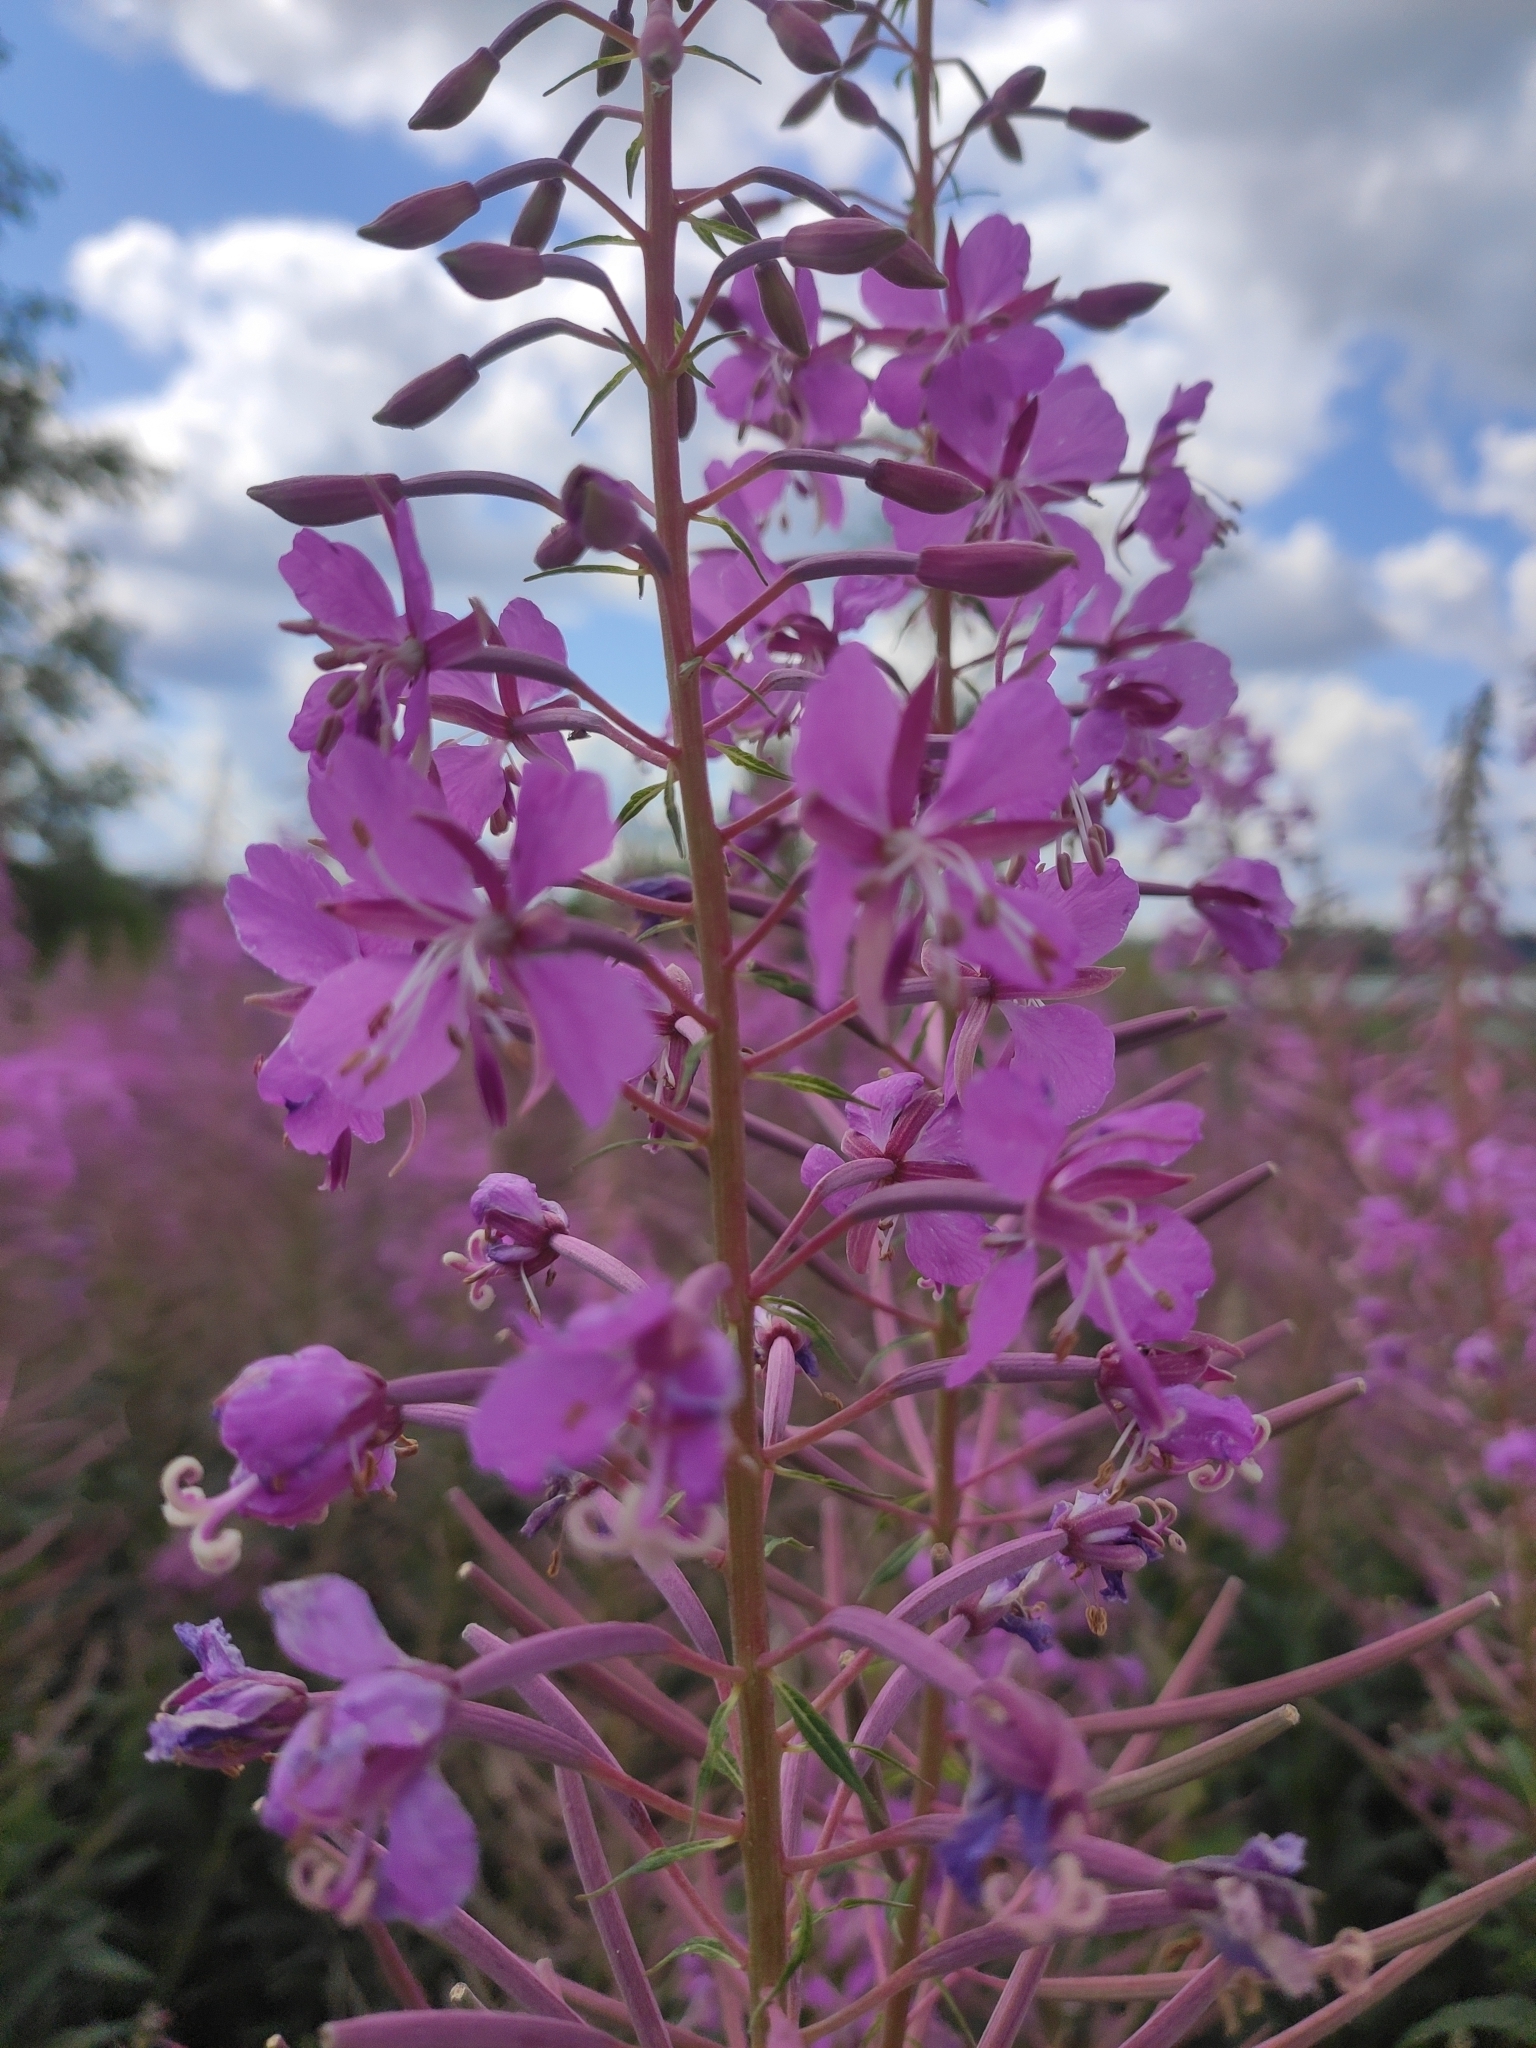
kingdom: Plantae
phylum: Tracheophyta
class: Magnoliopsida
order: Myrtales
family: Onagraceae
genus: Chamaenerion
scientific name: Chamaenerion angustifolium
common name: Fireweed
